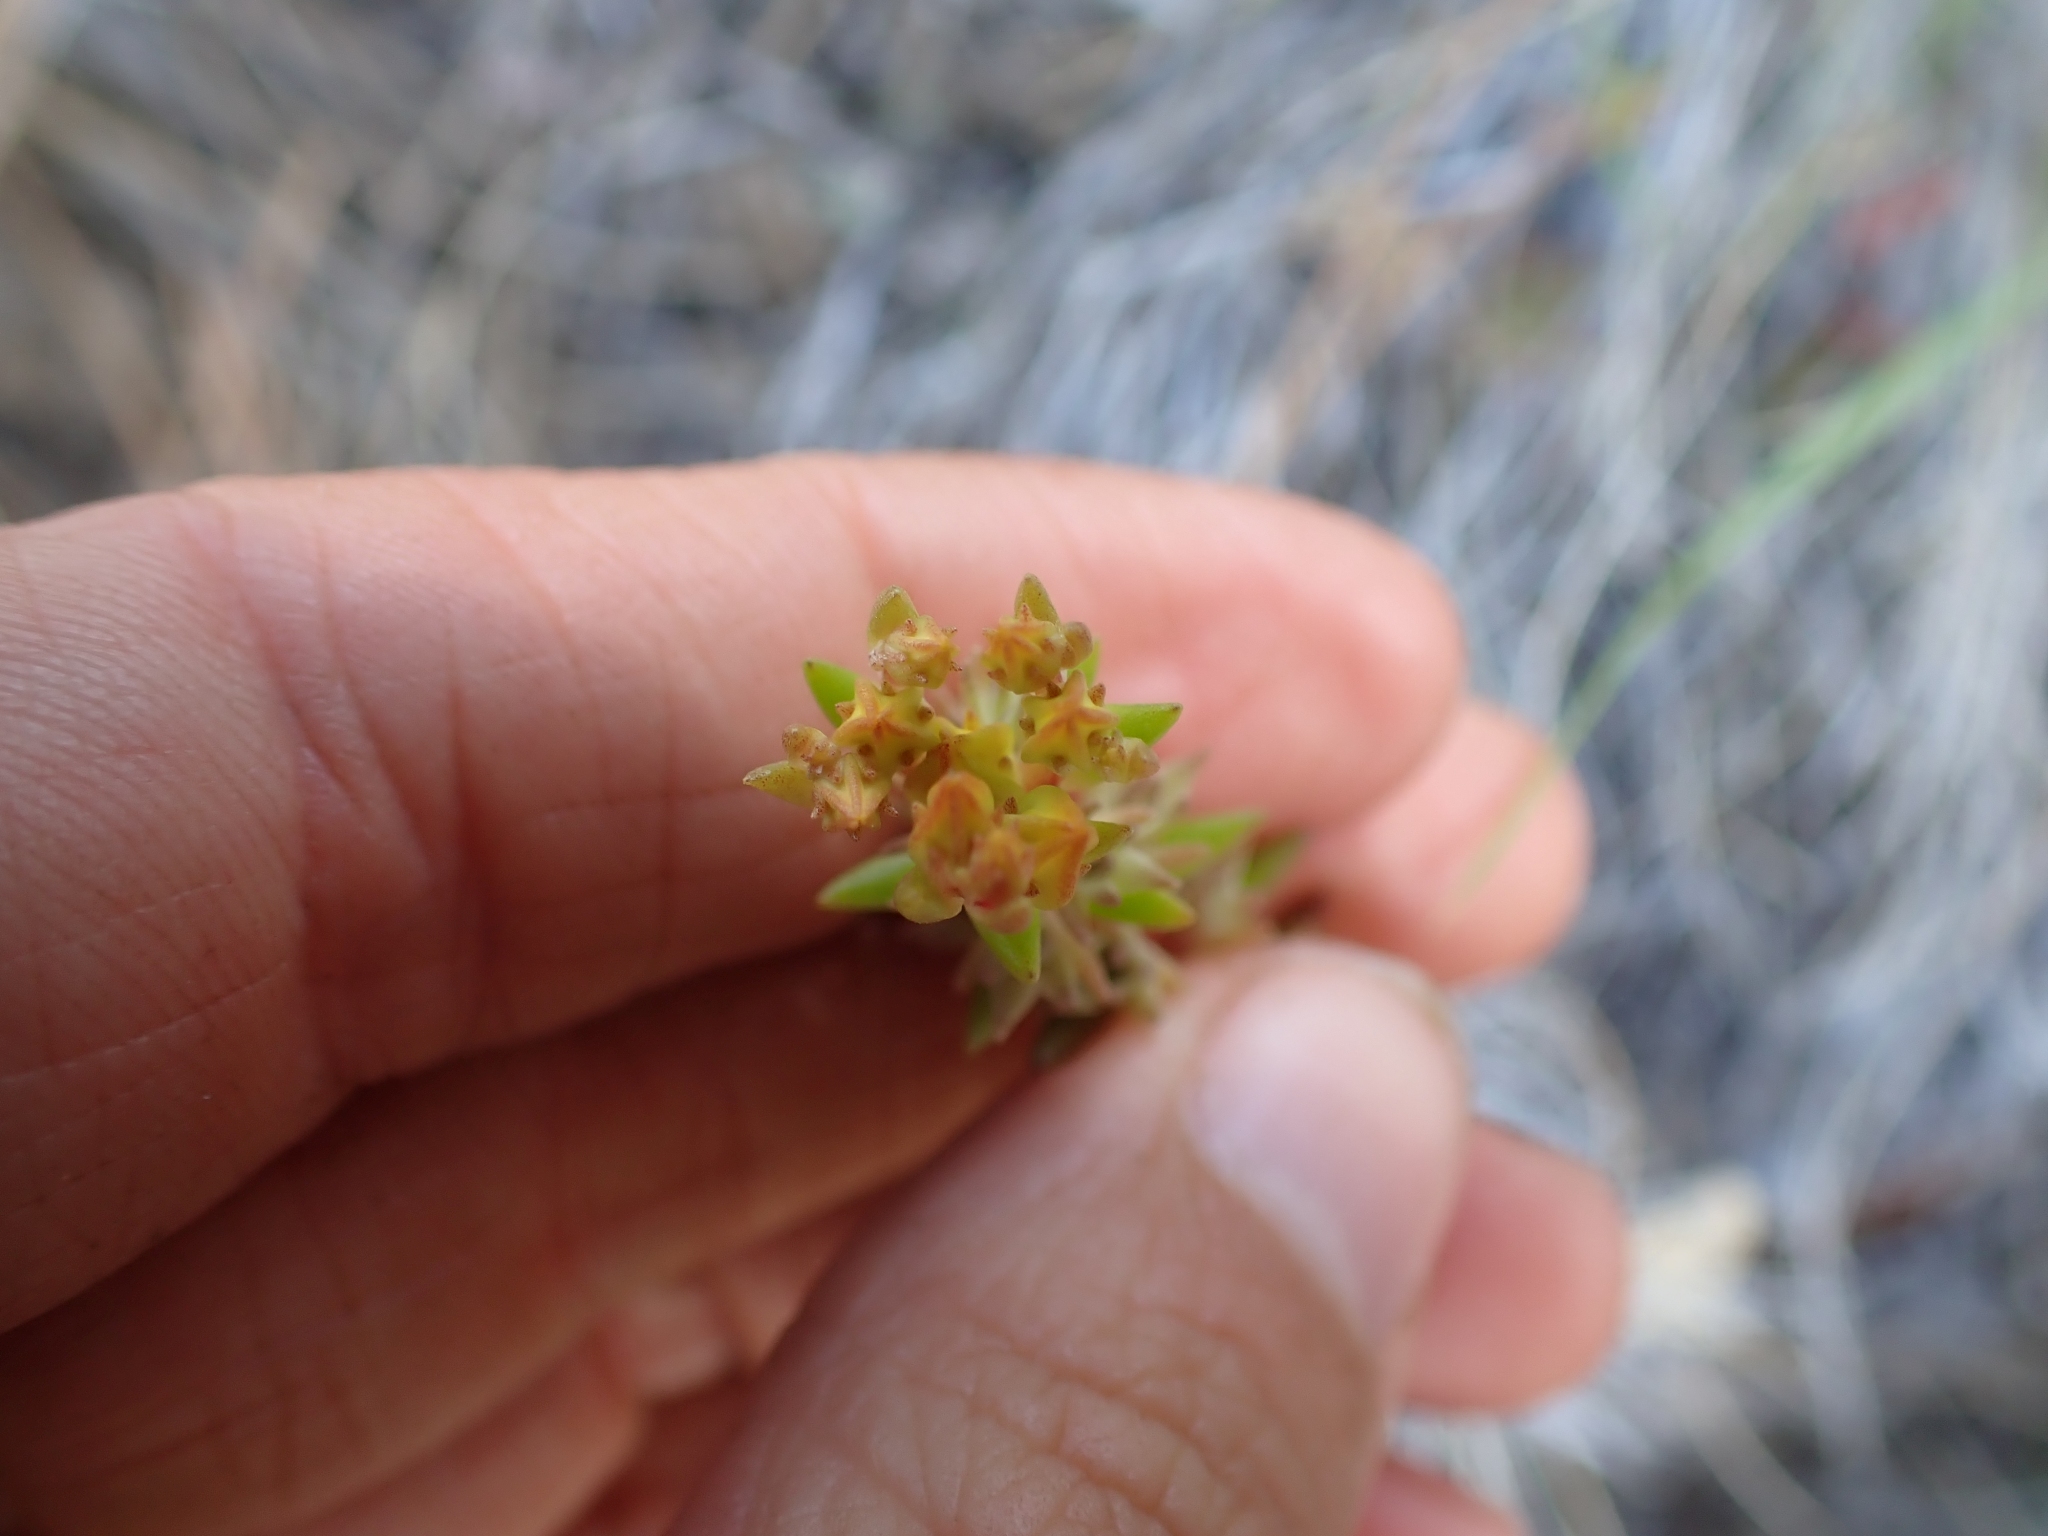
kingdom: Plantae
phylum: Tracheophyta
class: Magnoliopsida
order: Saxifragales
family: Crassulaceae
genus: Sedum
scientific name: Sedum stenopetalum
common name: Narrow-petaled stonecrop
